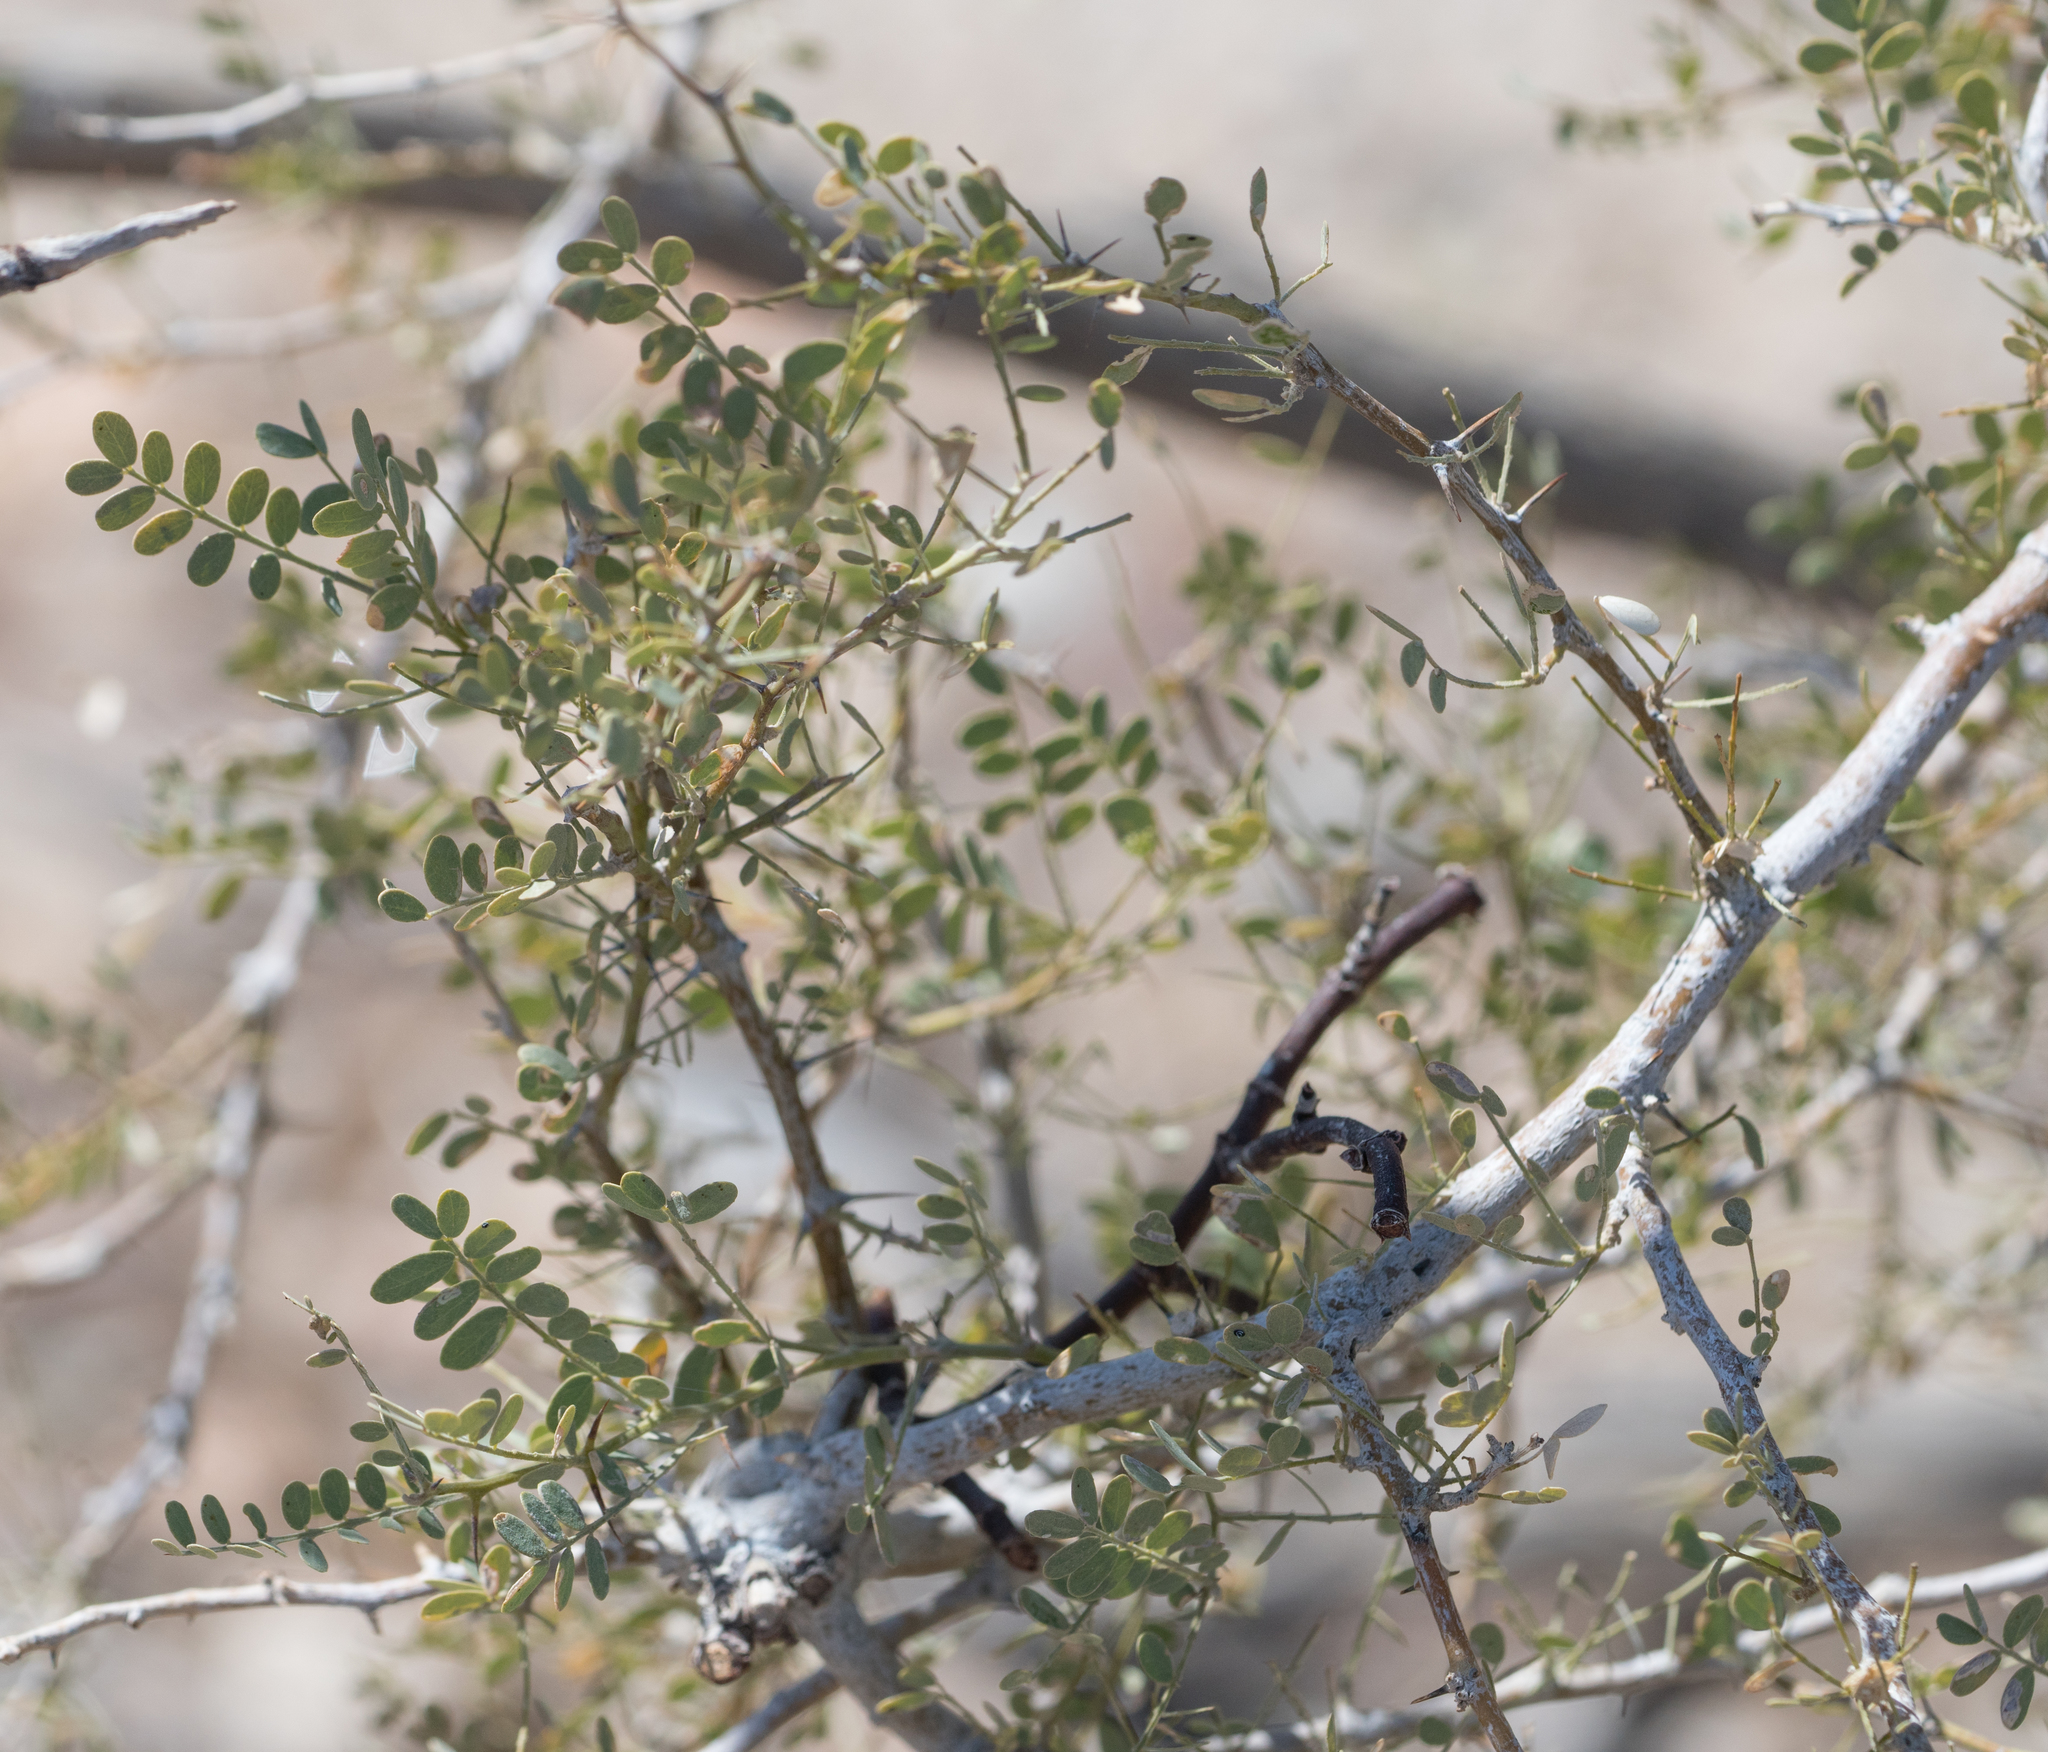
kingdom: Plantae
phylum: Tracheophyta
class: Magnoliopsida
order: Fabales
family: Fabaceae
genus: Olneya
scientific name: Olneya tesota
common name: Desert ironwood
